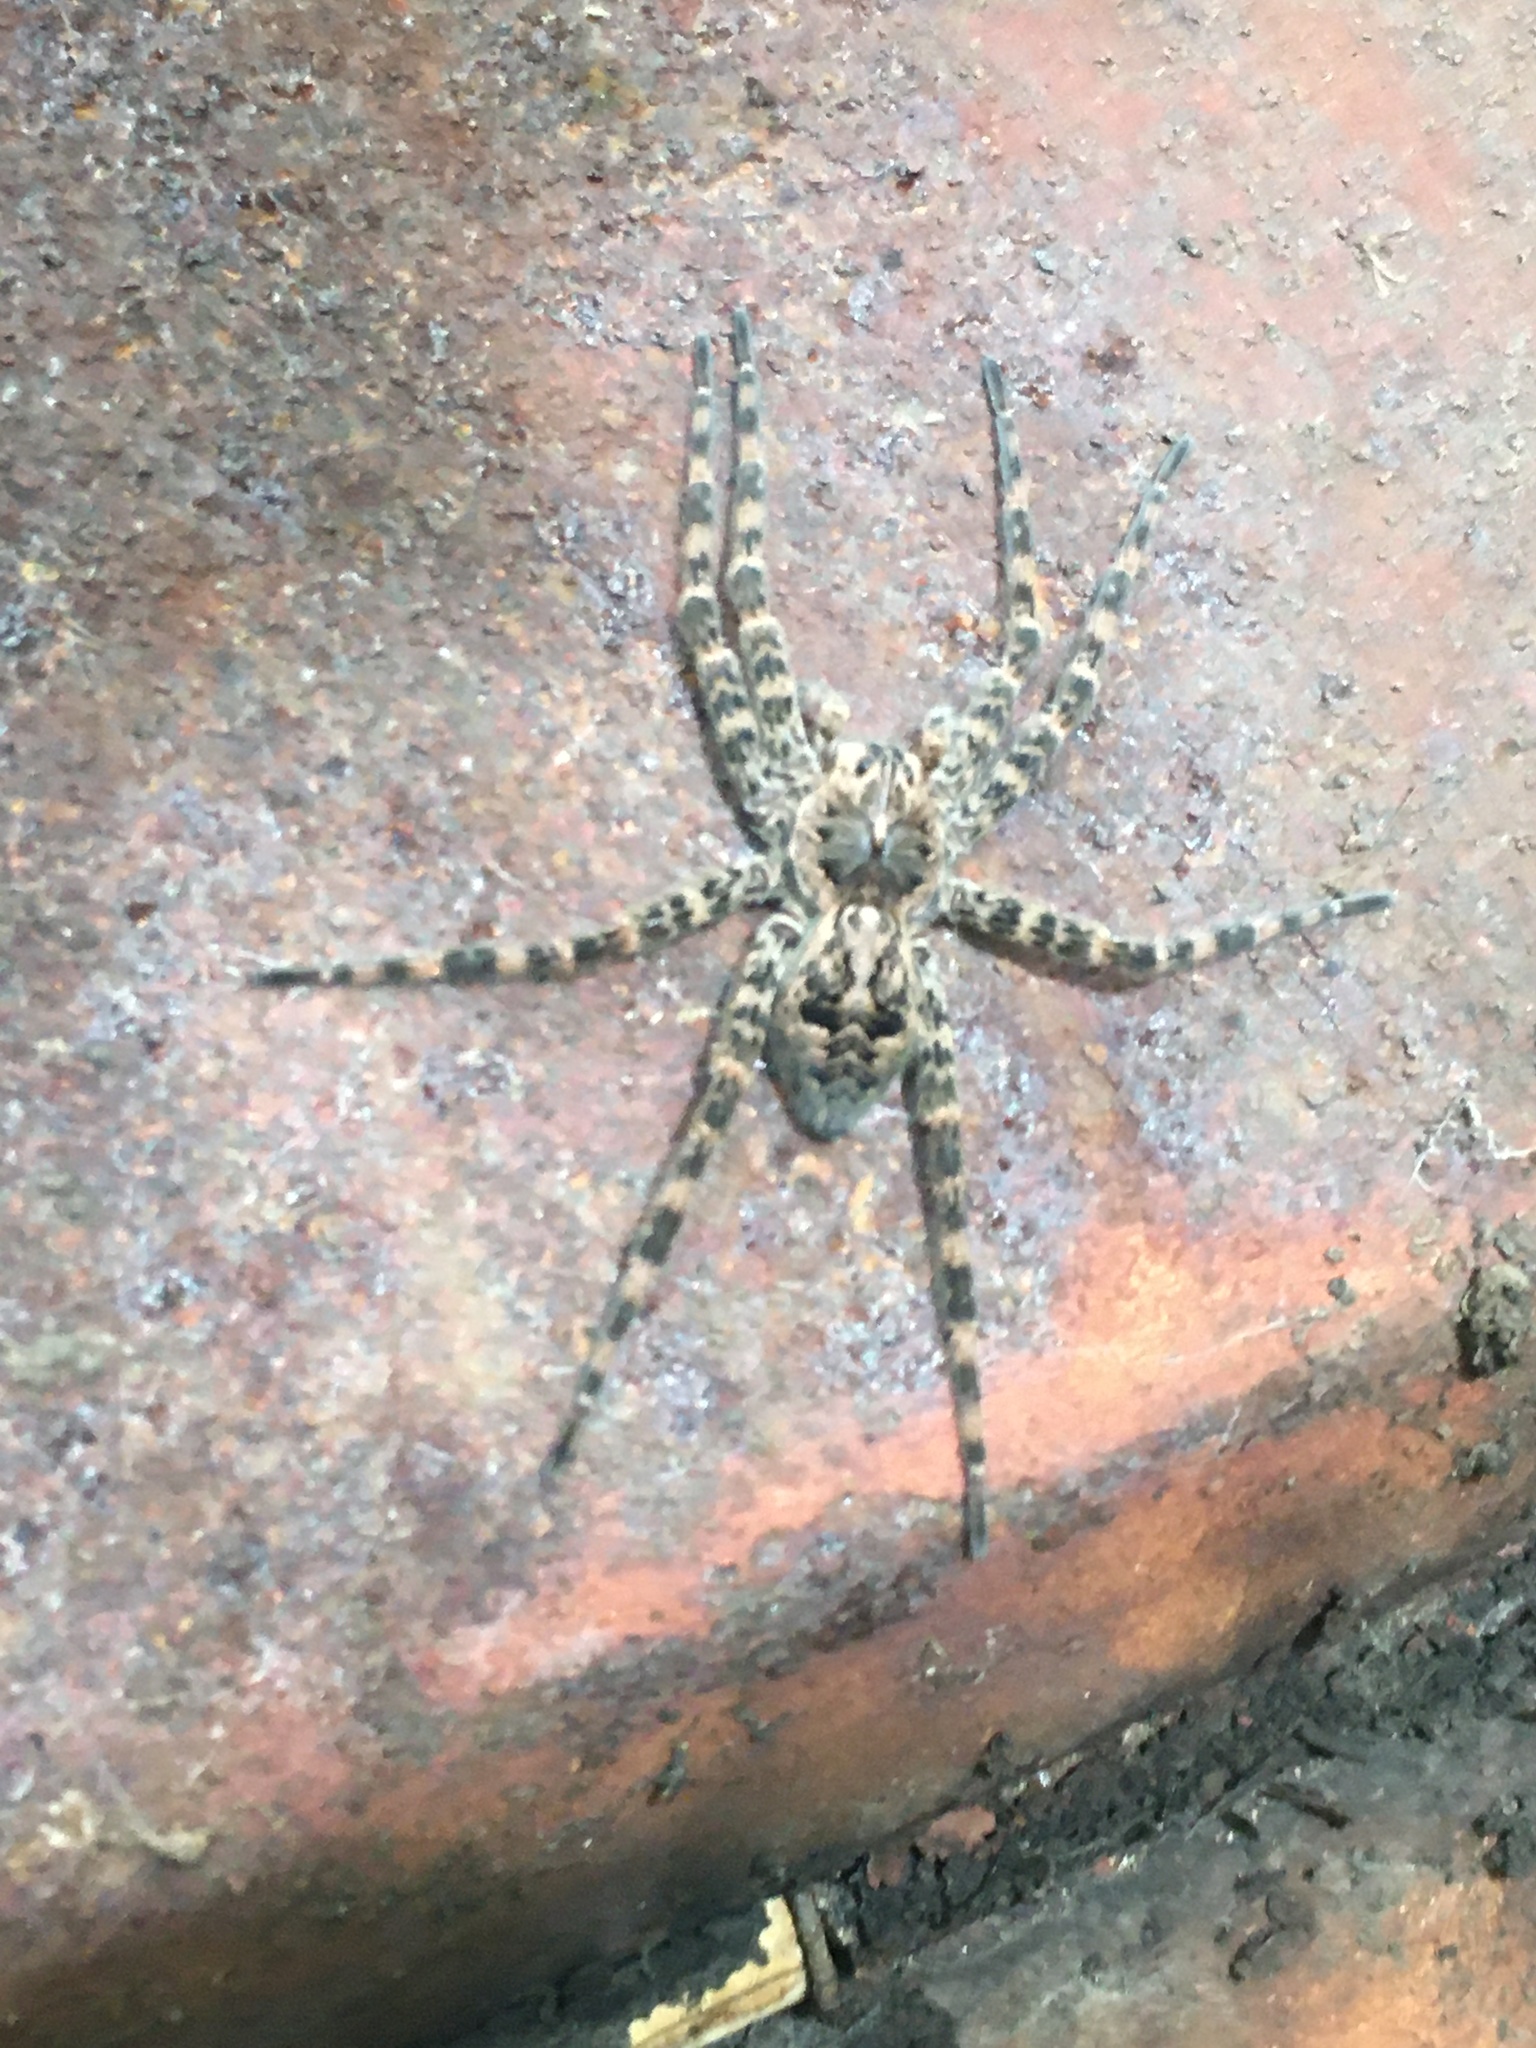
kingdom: Animalia
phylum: Arthropoda
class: Arachnida
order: Araneae
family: Pisauridae
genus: Dolomedes
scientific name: Dolomedes tenebrosus
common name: Dark fishing spider
